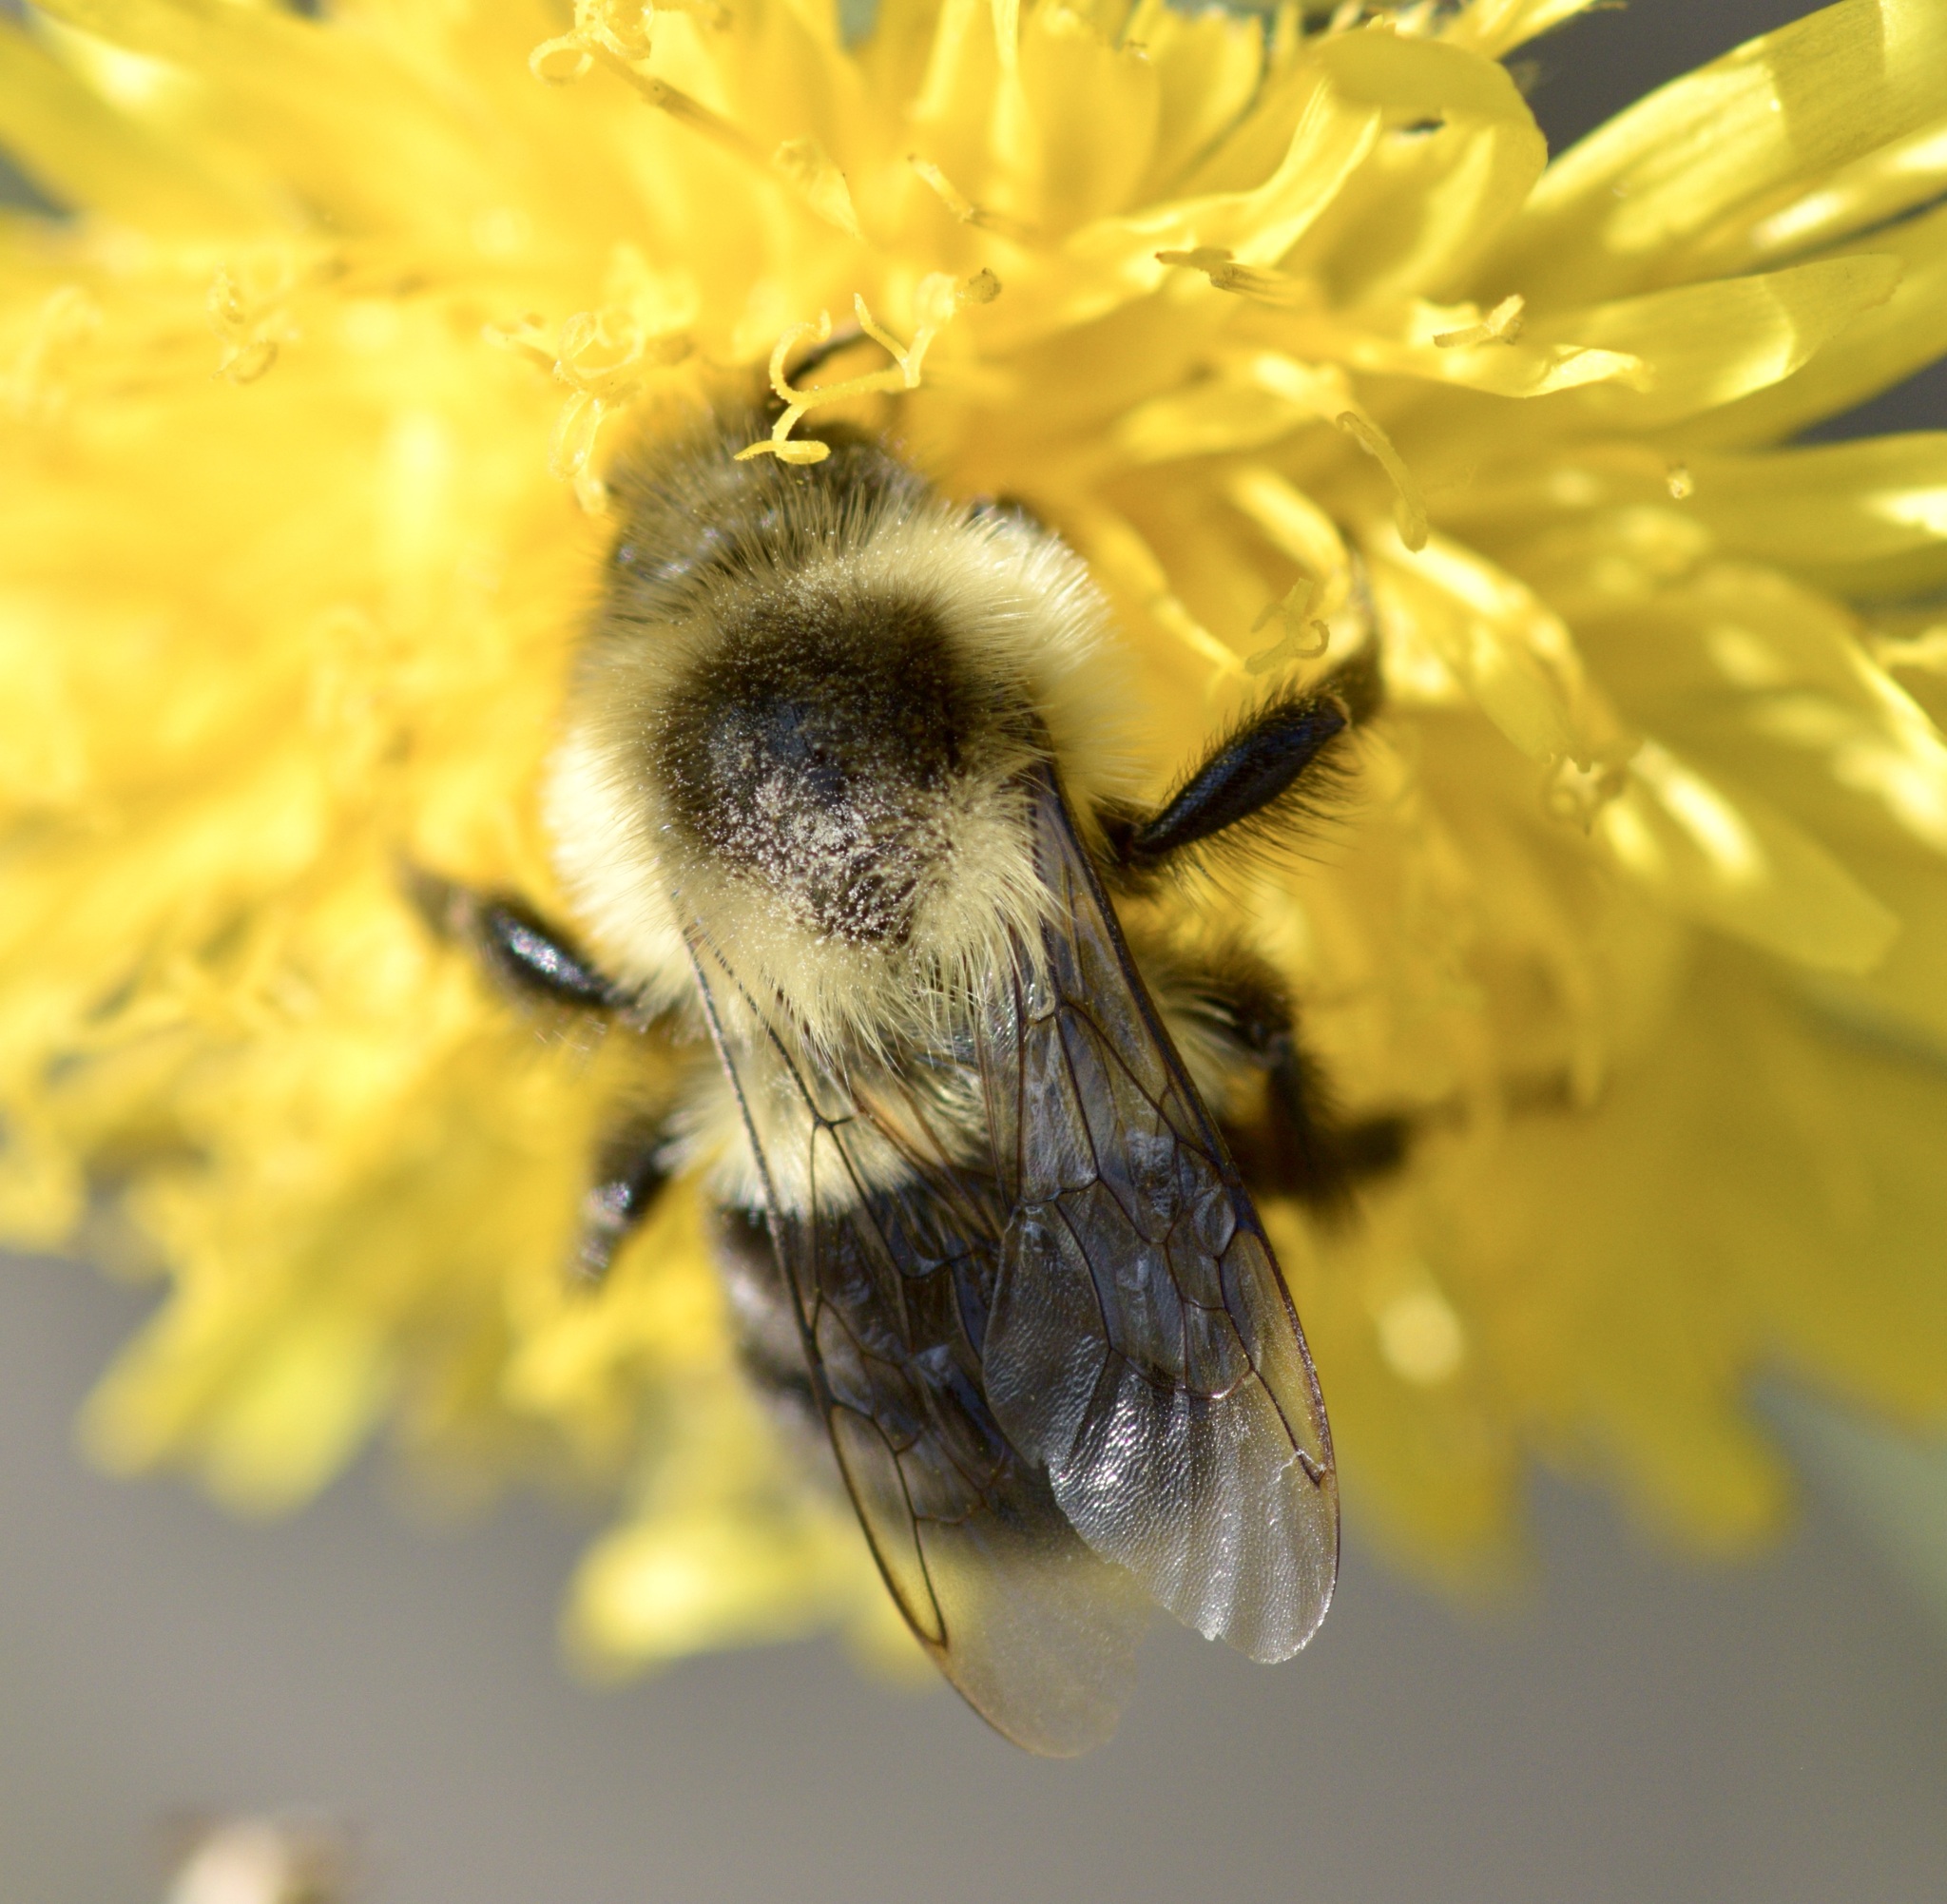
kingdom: Animalia
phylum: Arthropoda
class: Insecta
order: Hymenoptera
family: Apidae
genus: Bombus
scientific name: Bombus impatiens
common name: Common eastern bumble bee
